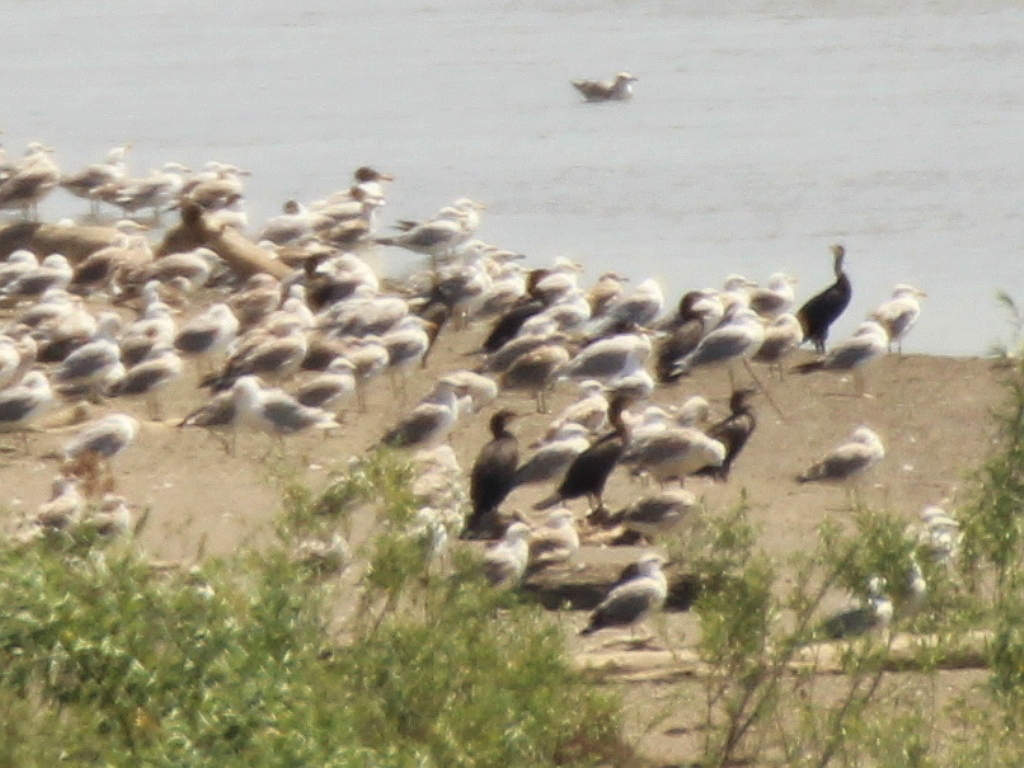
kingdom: Animalia
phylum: Chordata
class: Aves
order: Suliformes
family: Phalacrocoracidae
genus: Phalacrocorax
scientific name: Phalacrocorax carbo
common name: Great cormorant
